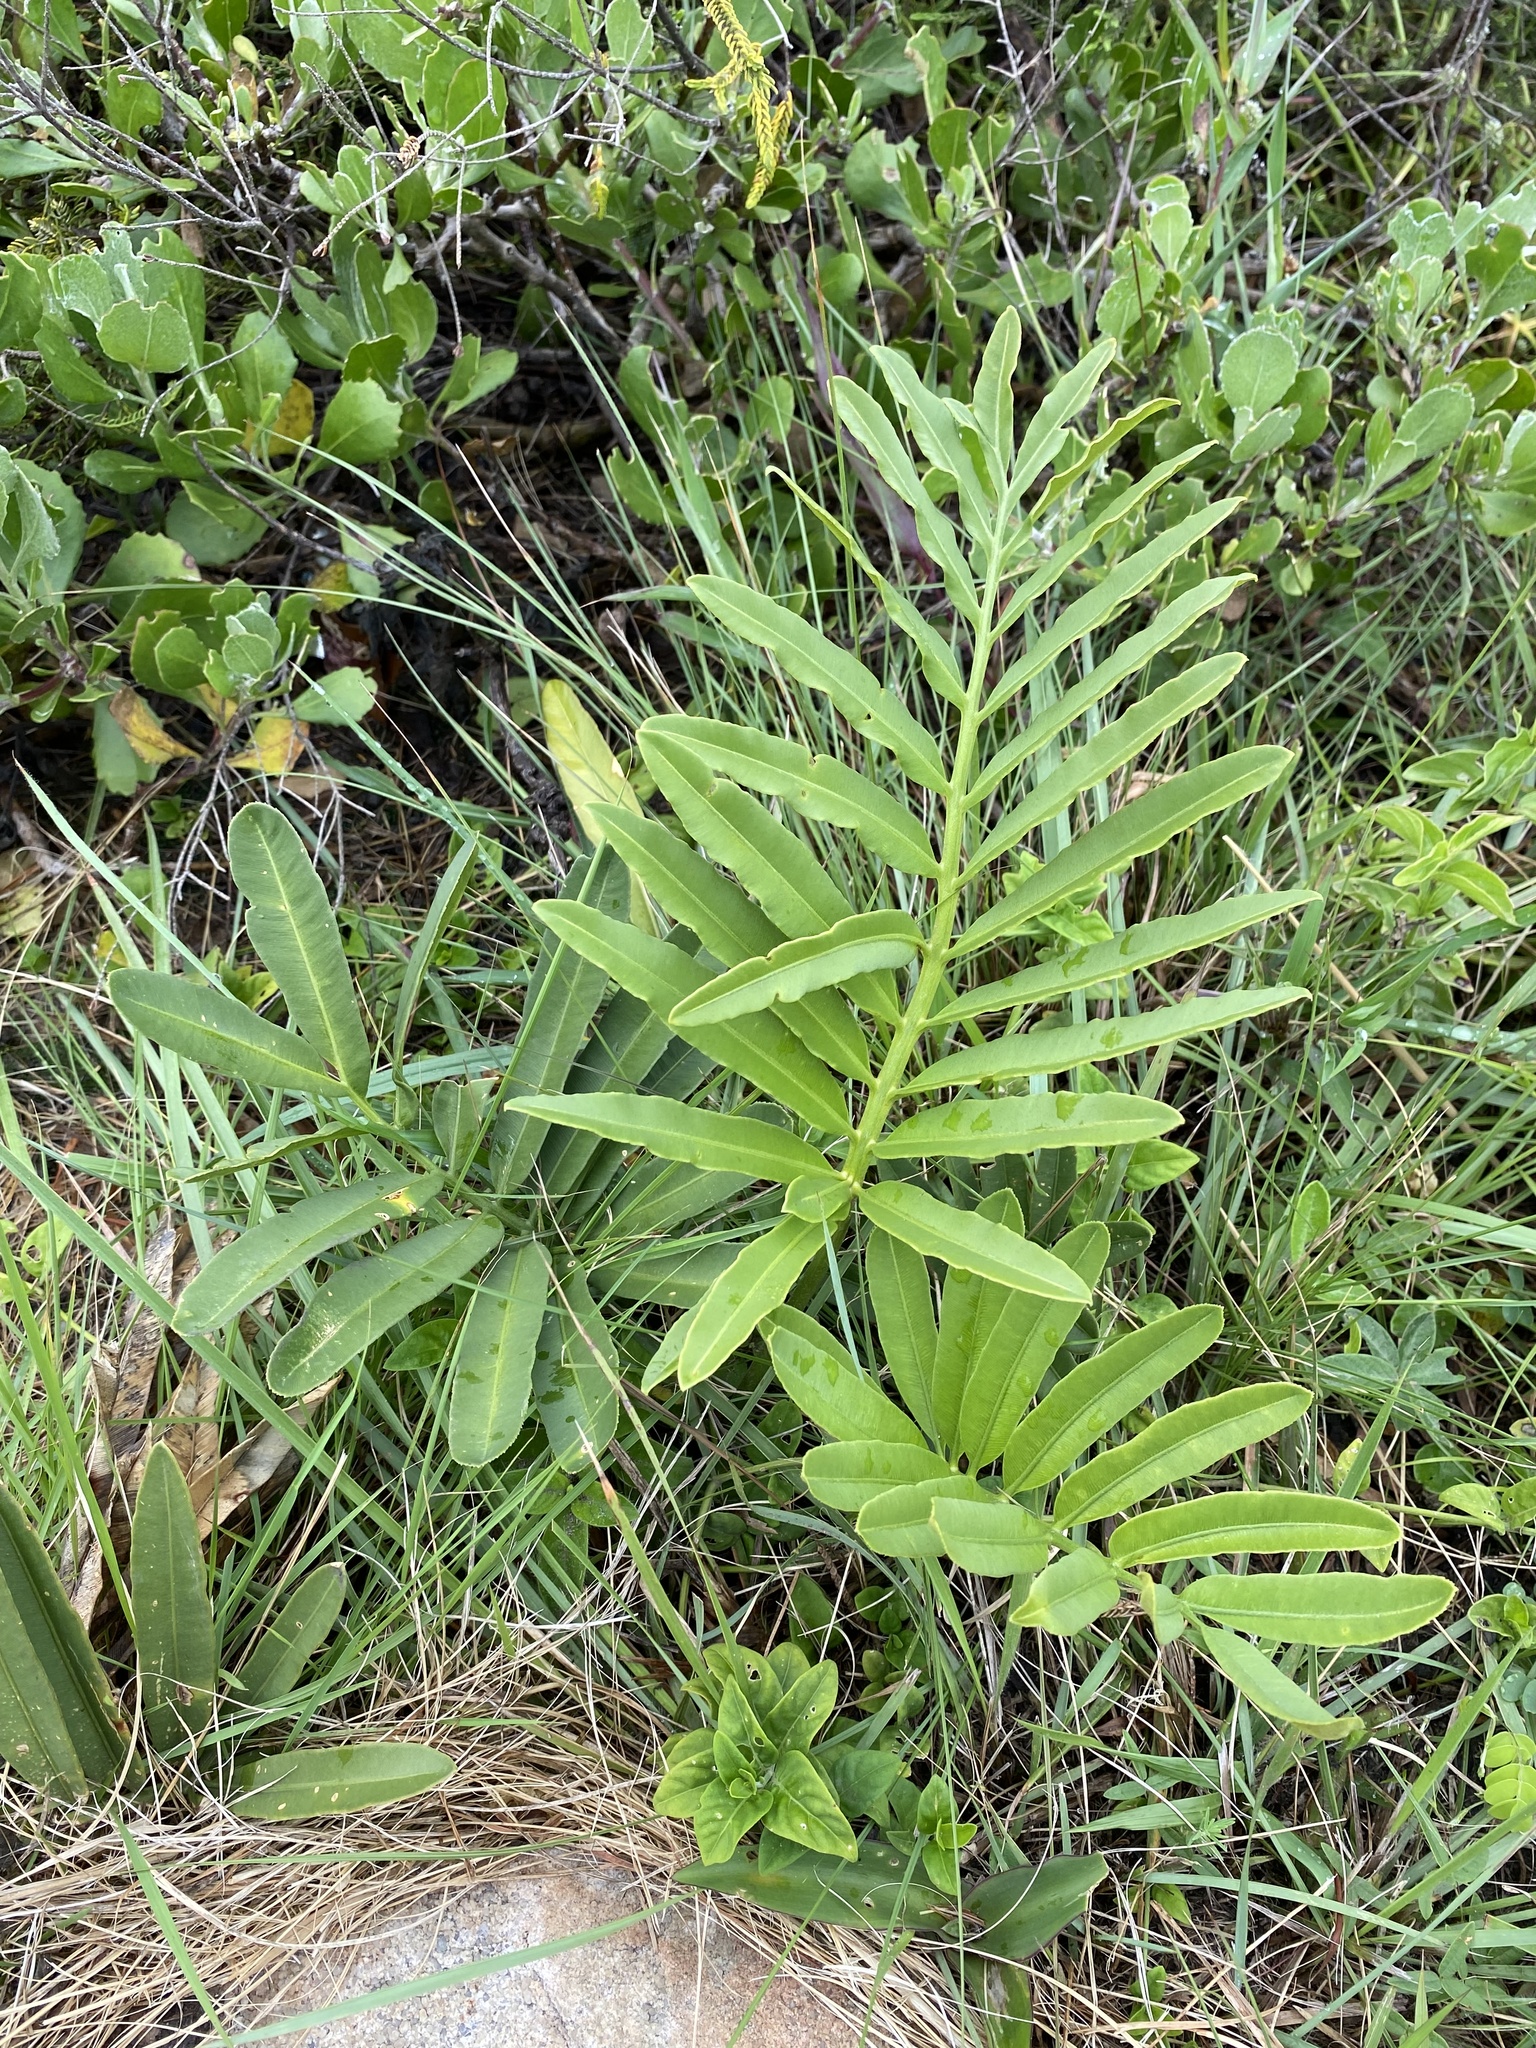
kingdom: Plantae
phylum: Tracheophyta
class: Cycadopsida
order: Cycadales
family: Zamiaceae
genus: Stangeria
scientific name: Stangeria eriopus
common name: Natal grass cycad
